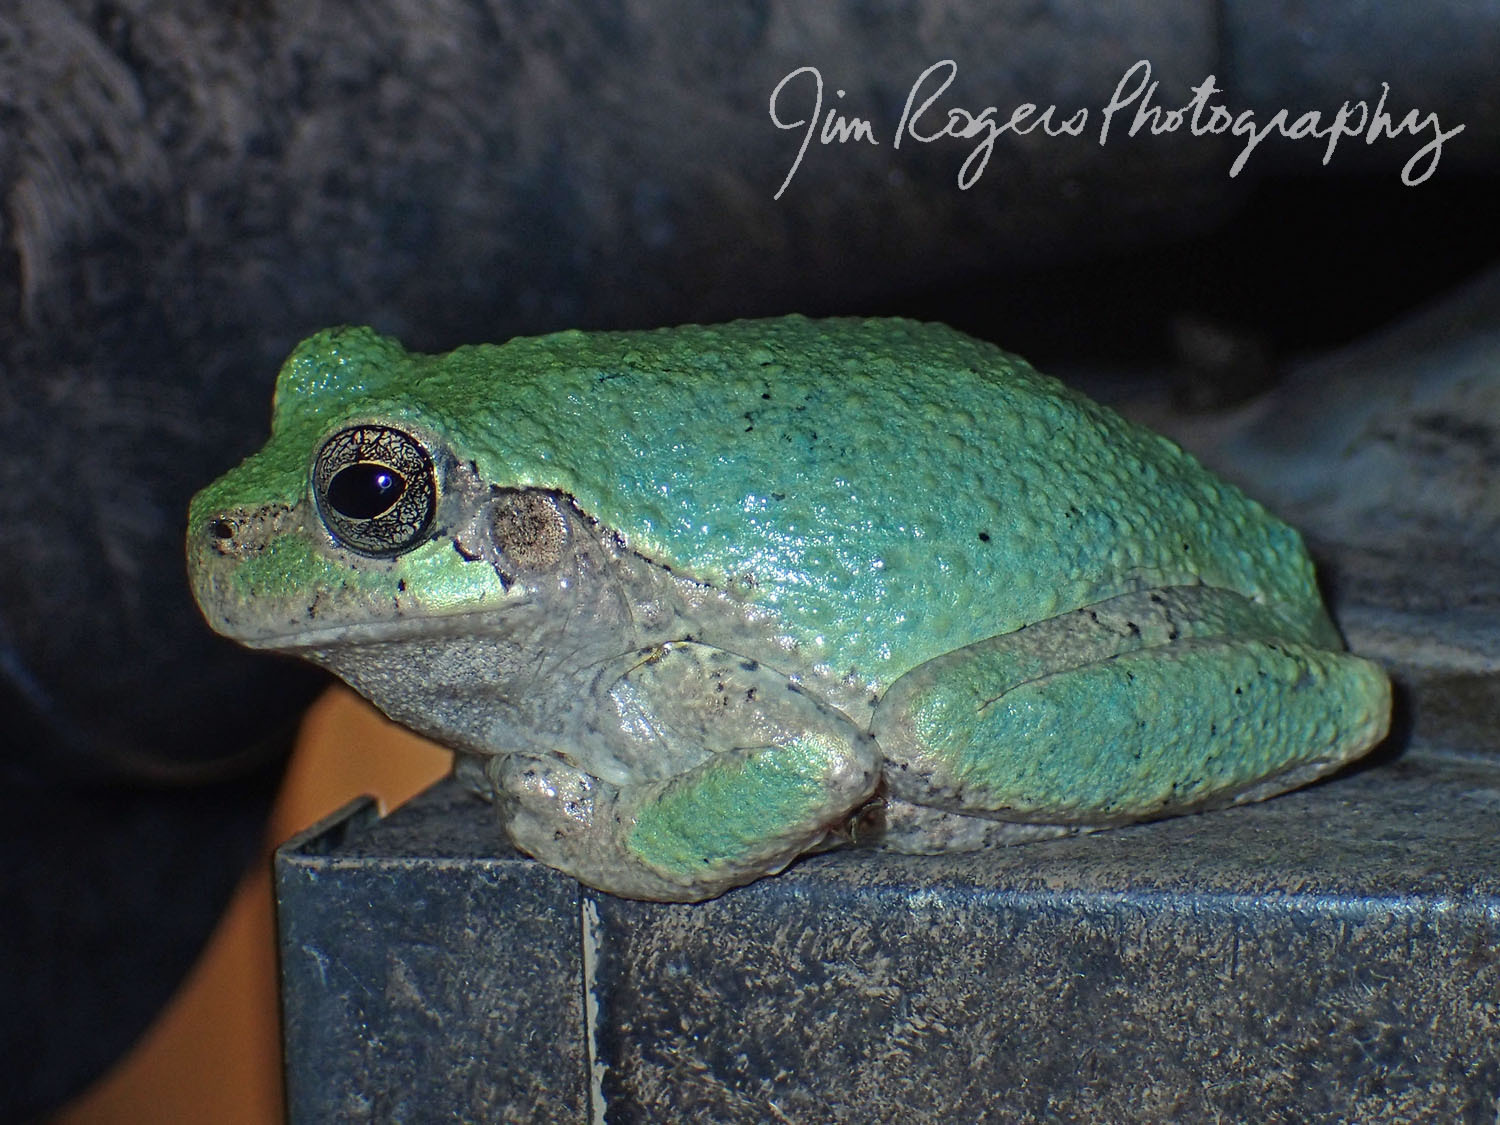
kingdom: Animalia
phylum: Chordata
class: Amphibia
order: Anura
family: Hylidae
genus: Hyla
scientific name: Hyla
